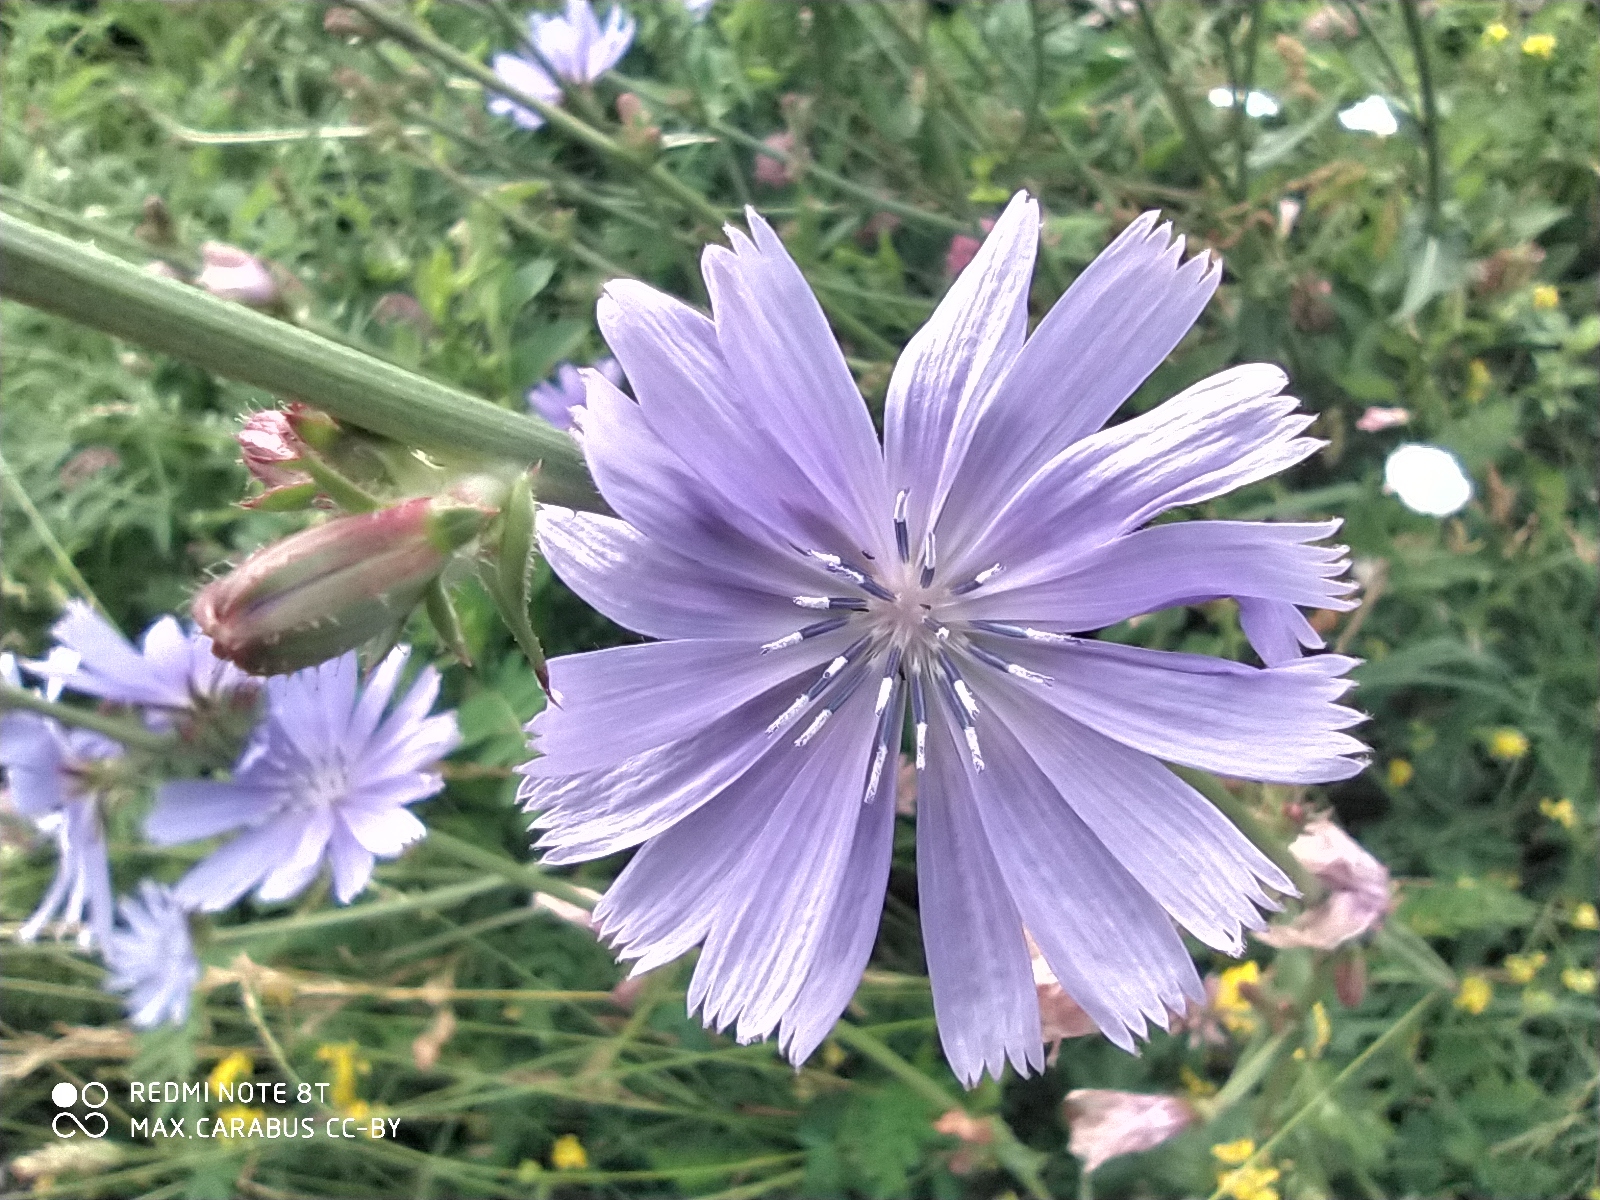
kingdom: Plantae
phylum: Tracheophyta
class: Magnoliopsida
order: Asterales
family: Asteraceae
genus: Cichorium
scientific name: Cichorium intybus
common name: Chicory
